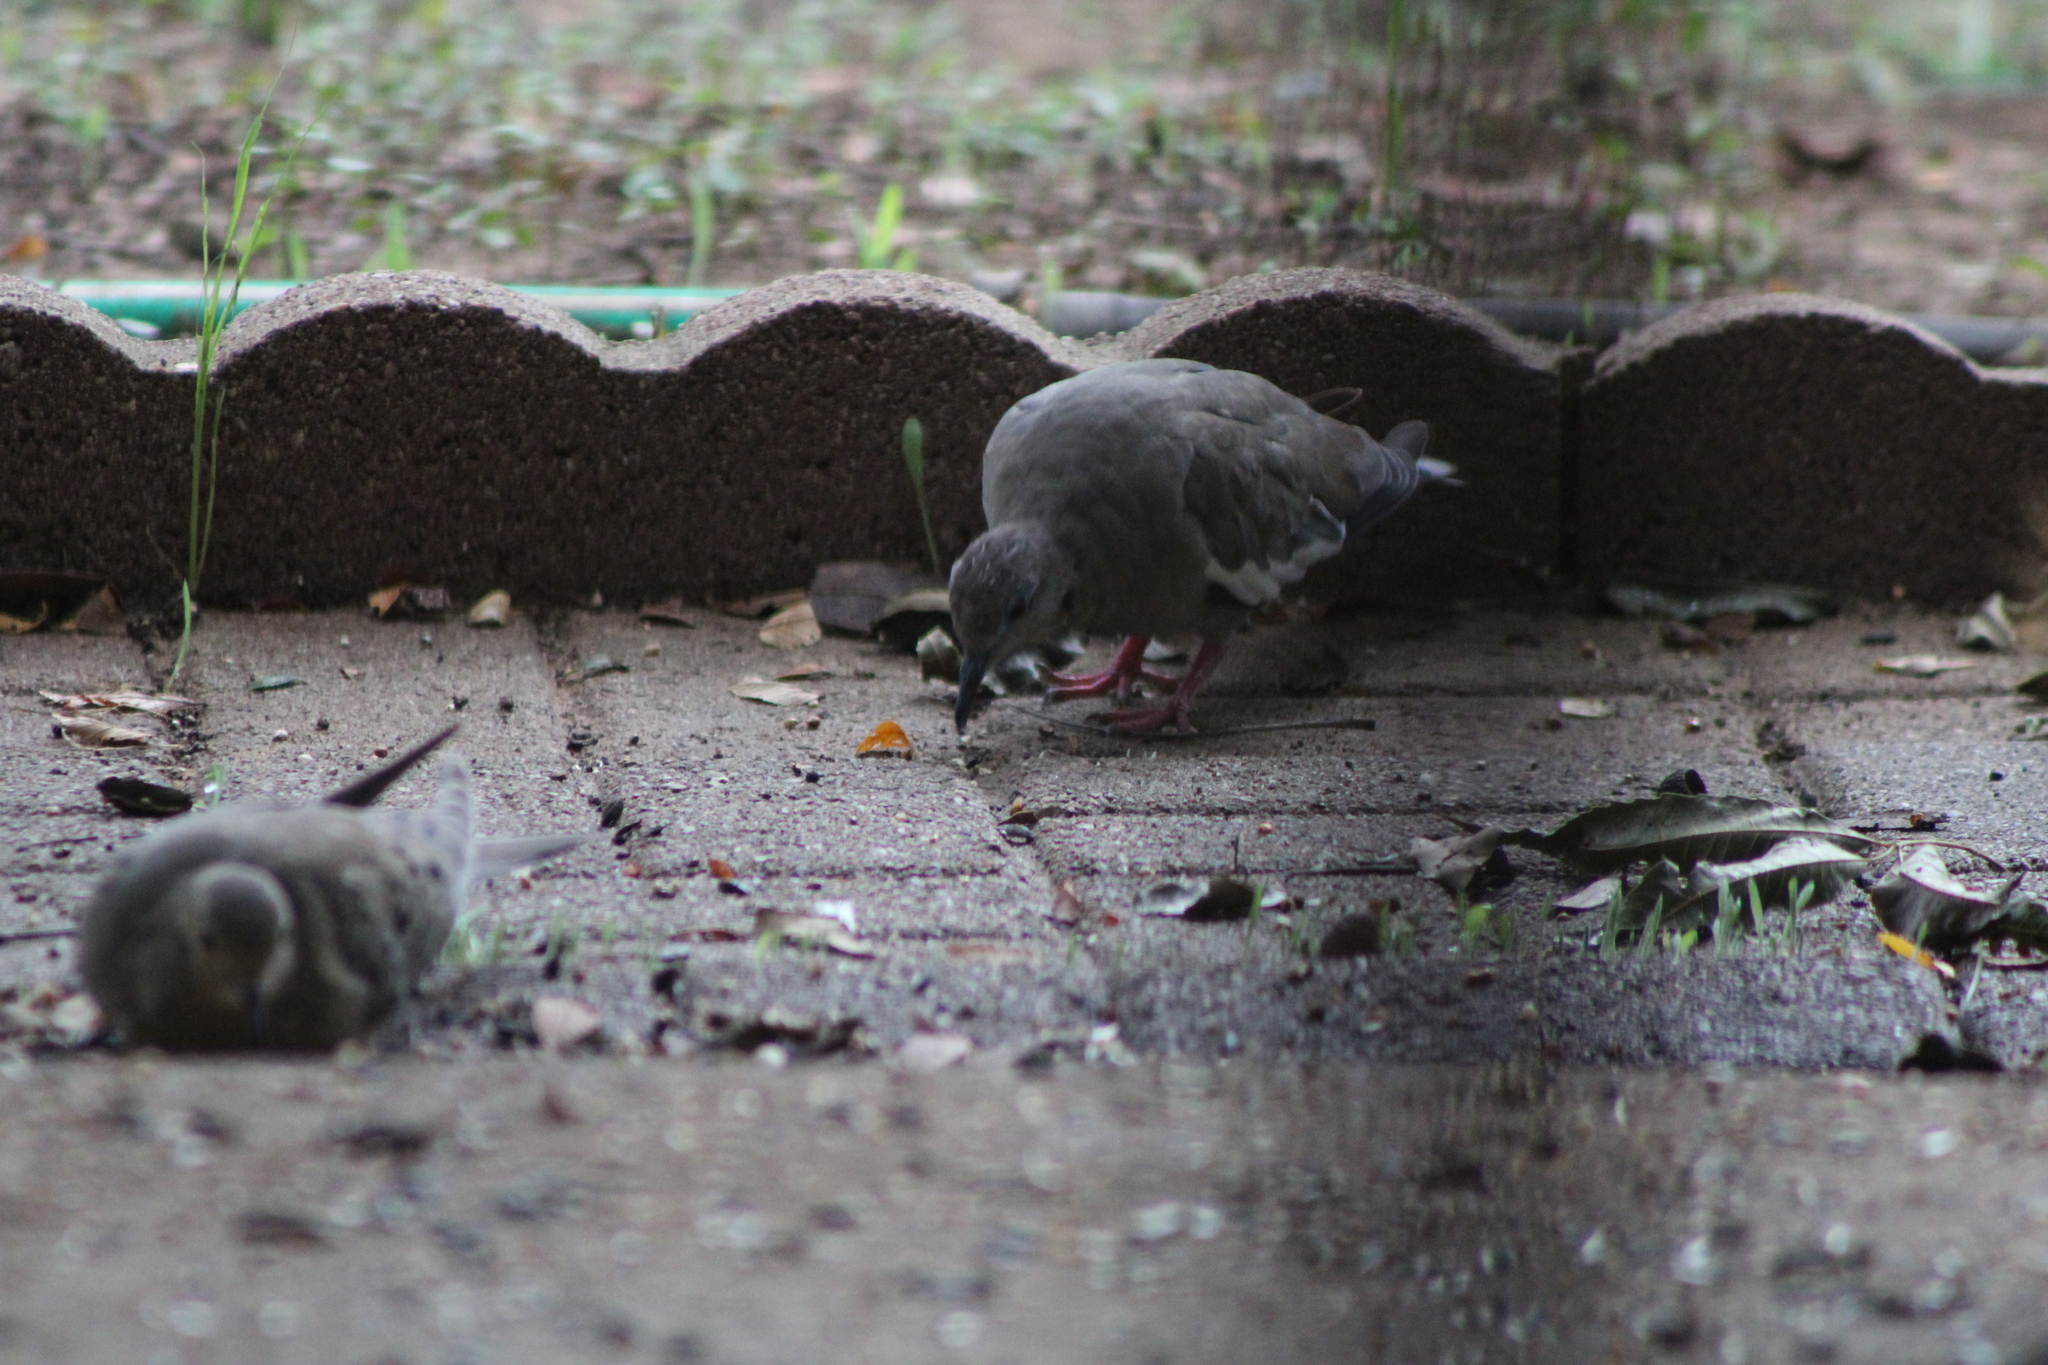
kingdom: Animalia
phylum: Chordata
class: Aves
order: Columbiformes
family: Columbidae
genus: Zenaida
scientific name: Zenaida asiatica
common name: White-winged dove
